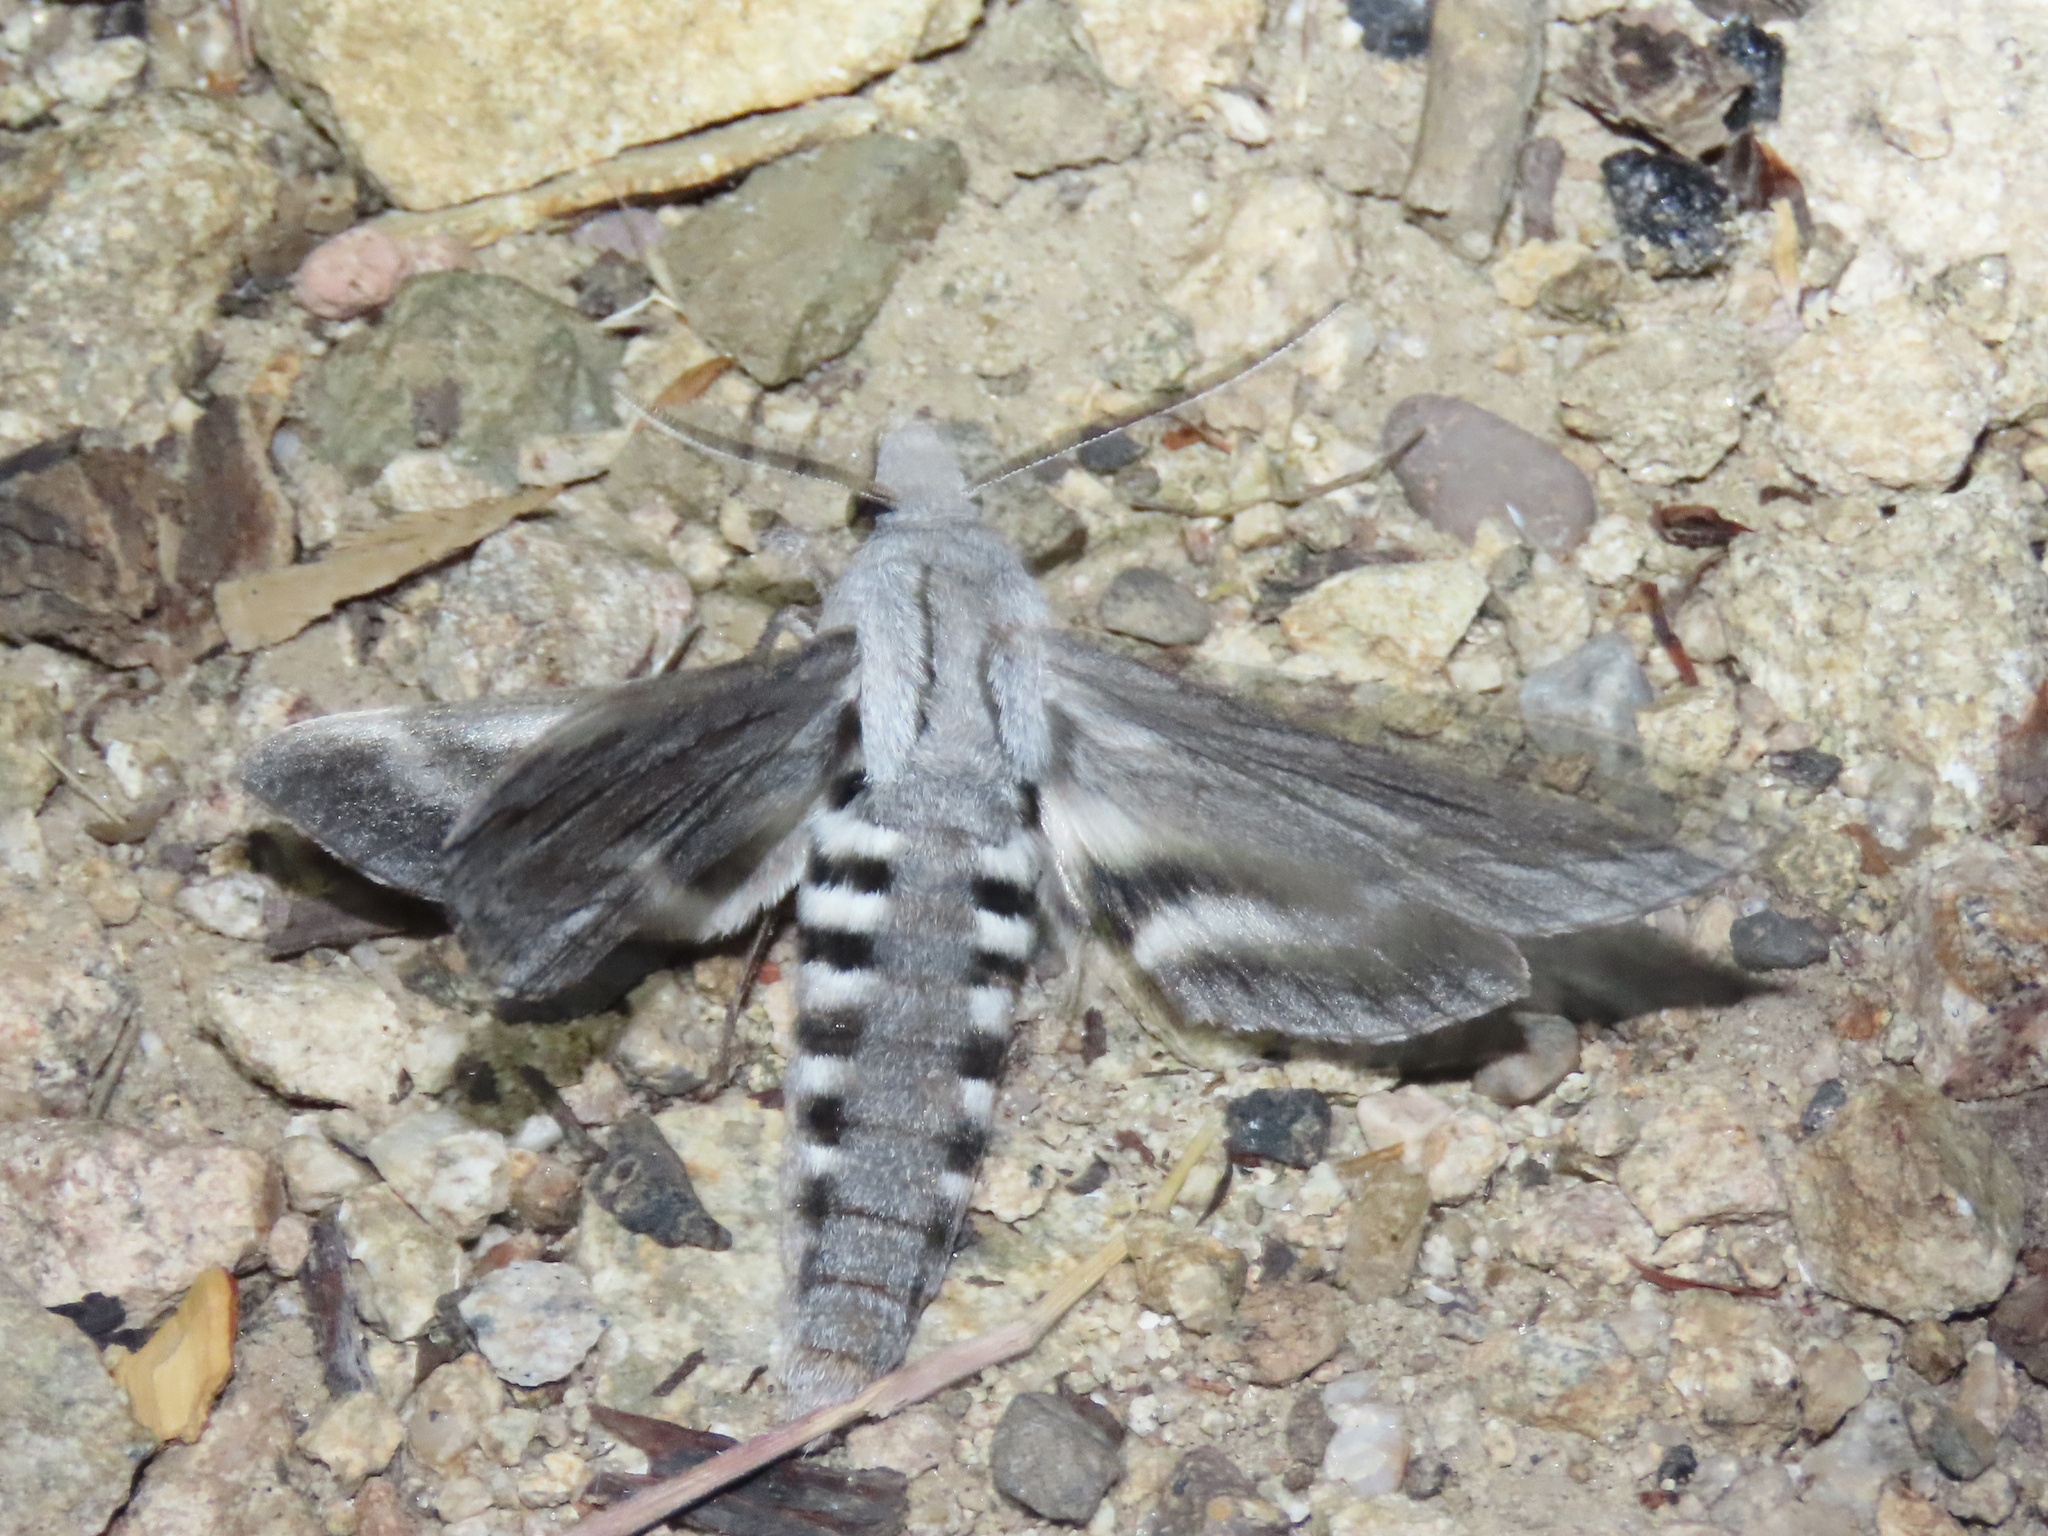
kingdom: Animalia
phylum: Arthropoda
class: Insecta
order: Lepidoptera
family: Sphingidae
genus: Sphinx
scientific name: Sphinx chersis
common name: Great ash sphinx
